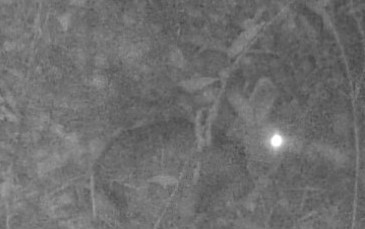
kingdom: Animalia
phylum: Chordata
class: Mammalia
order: Lagomorpha
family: Leporidae
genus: Sylvilagus
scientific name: Sylvilagus floridanus
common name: Eastern cottontail
